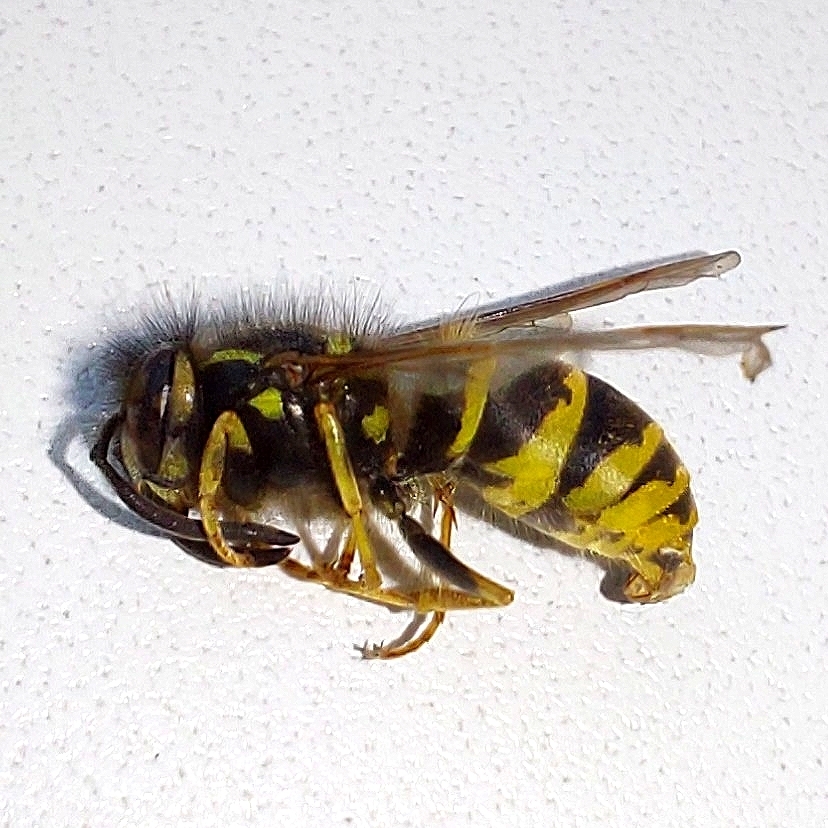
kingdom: Animalia
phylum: Arthropoda
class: Insecta
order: Hymenoptera
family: Vespidae
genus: Vespula
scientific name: Vespula vulgaris
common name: Common wasp
